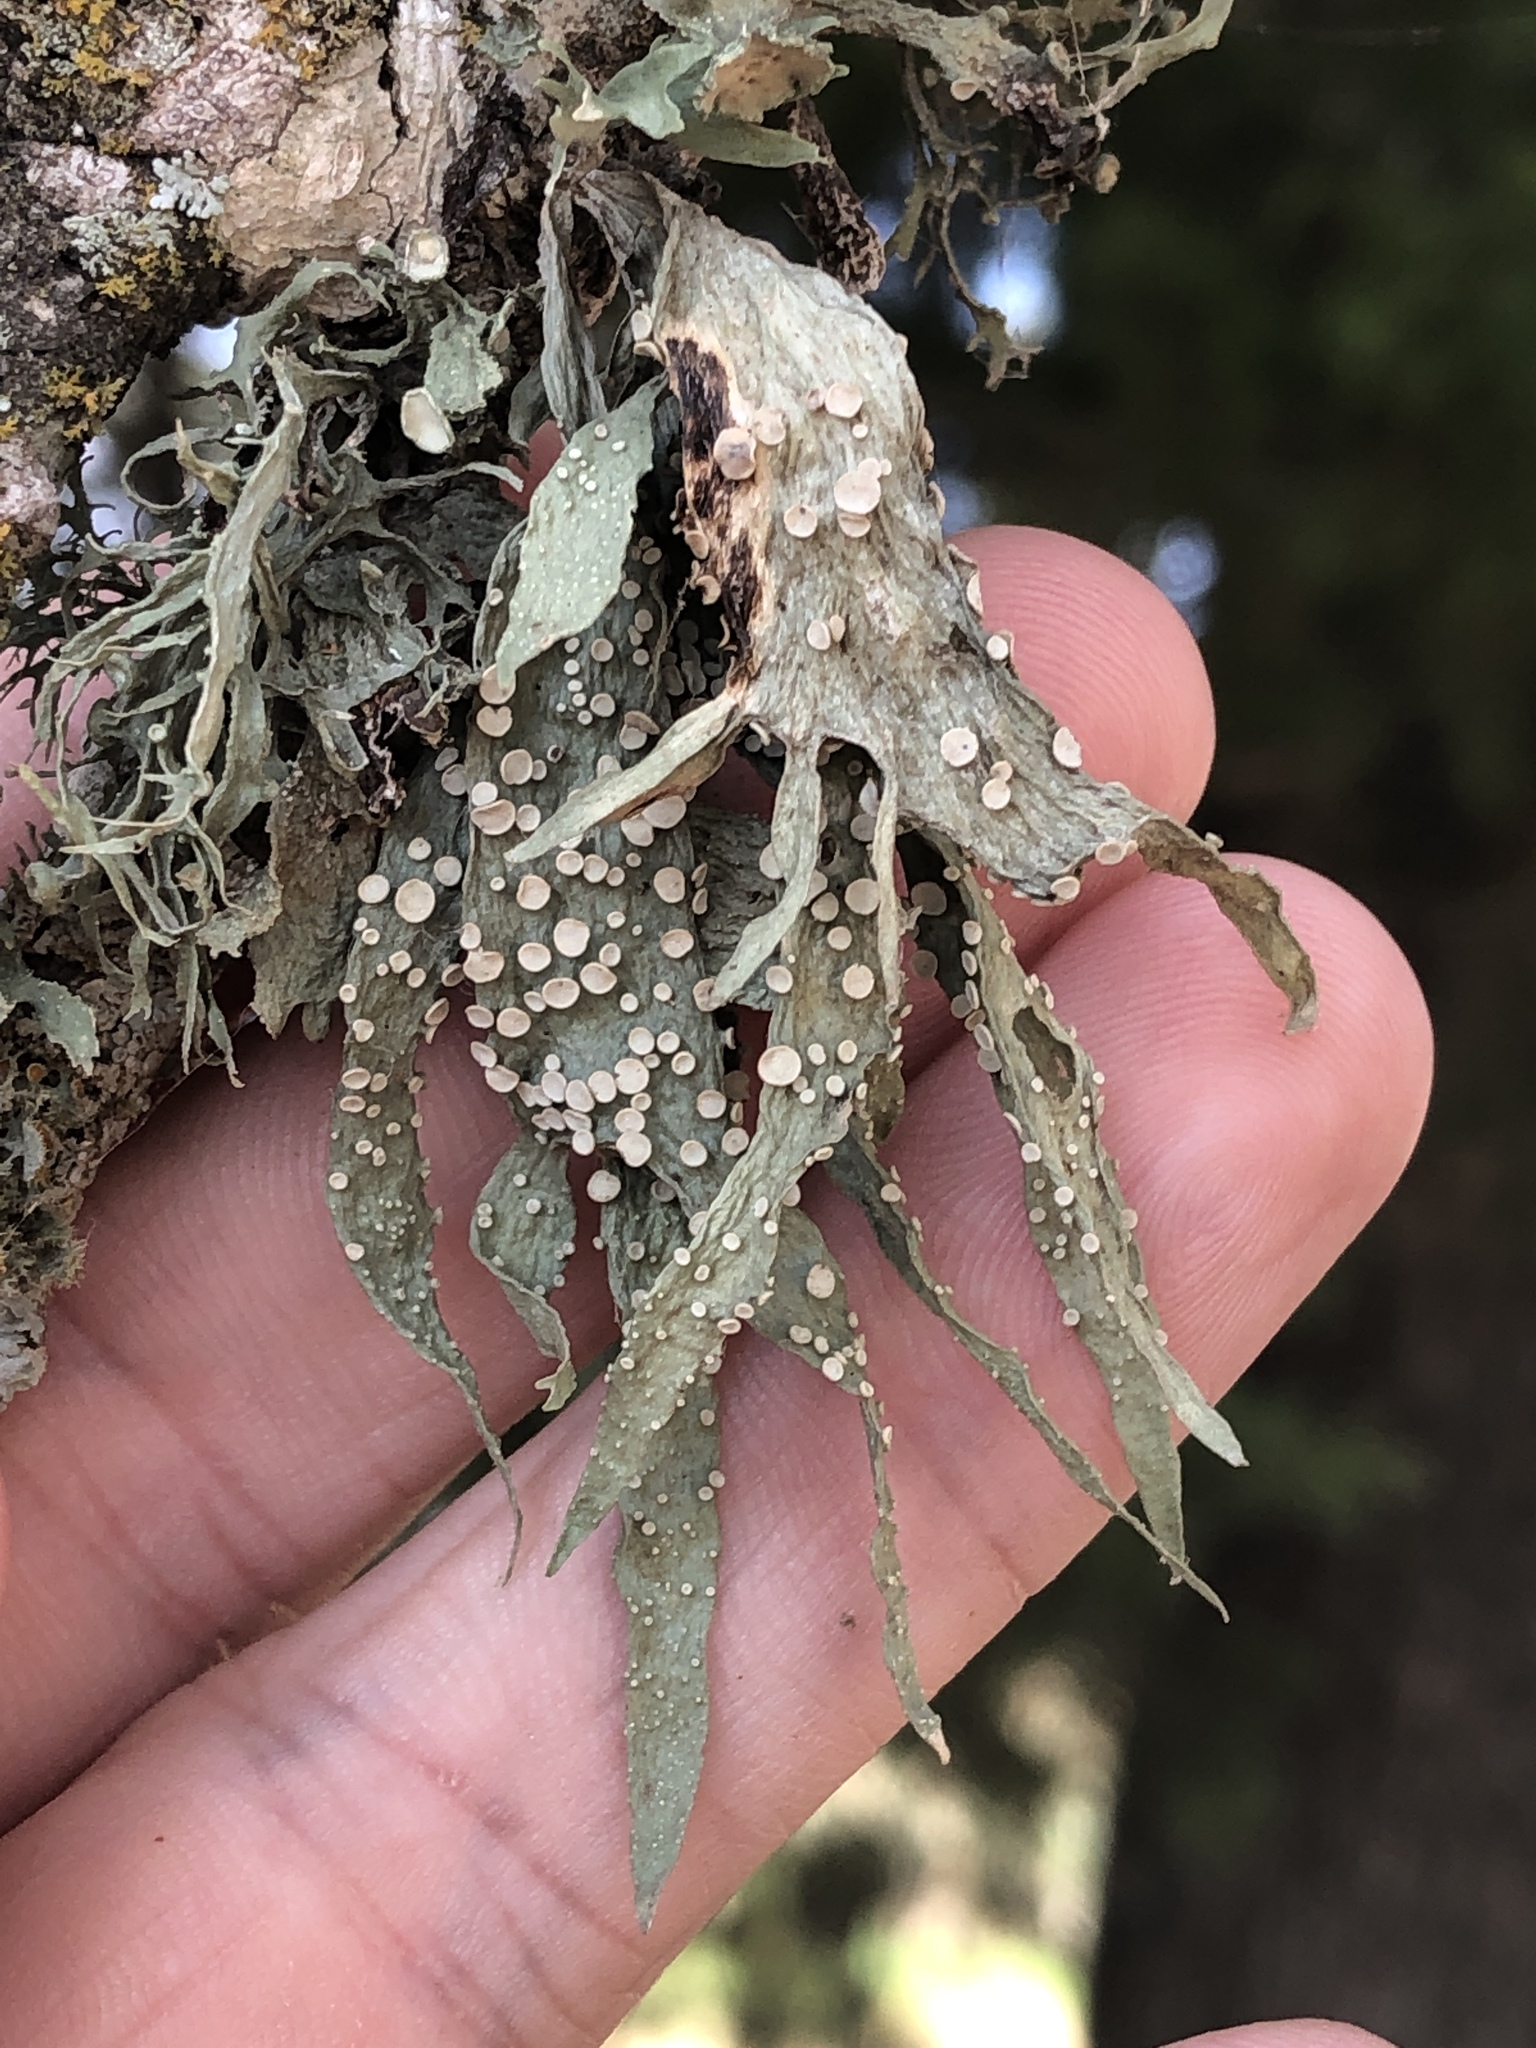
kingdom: Fungi
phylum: Ascomycota
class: Lecanoromycetes
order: Lecanorales
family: Ramalinaceae
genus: Ramalina
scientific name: Ramalina celastri
